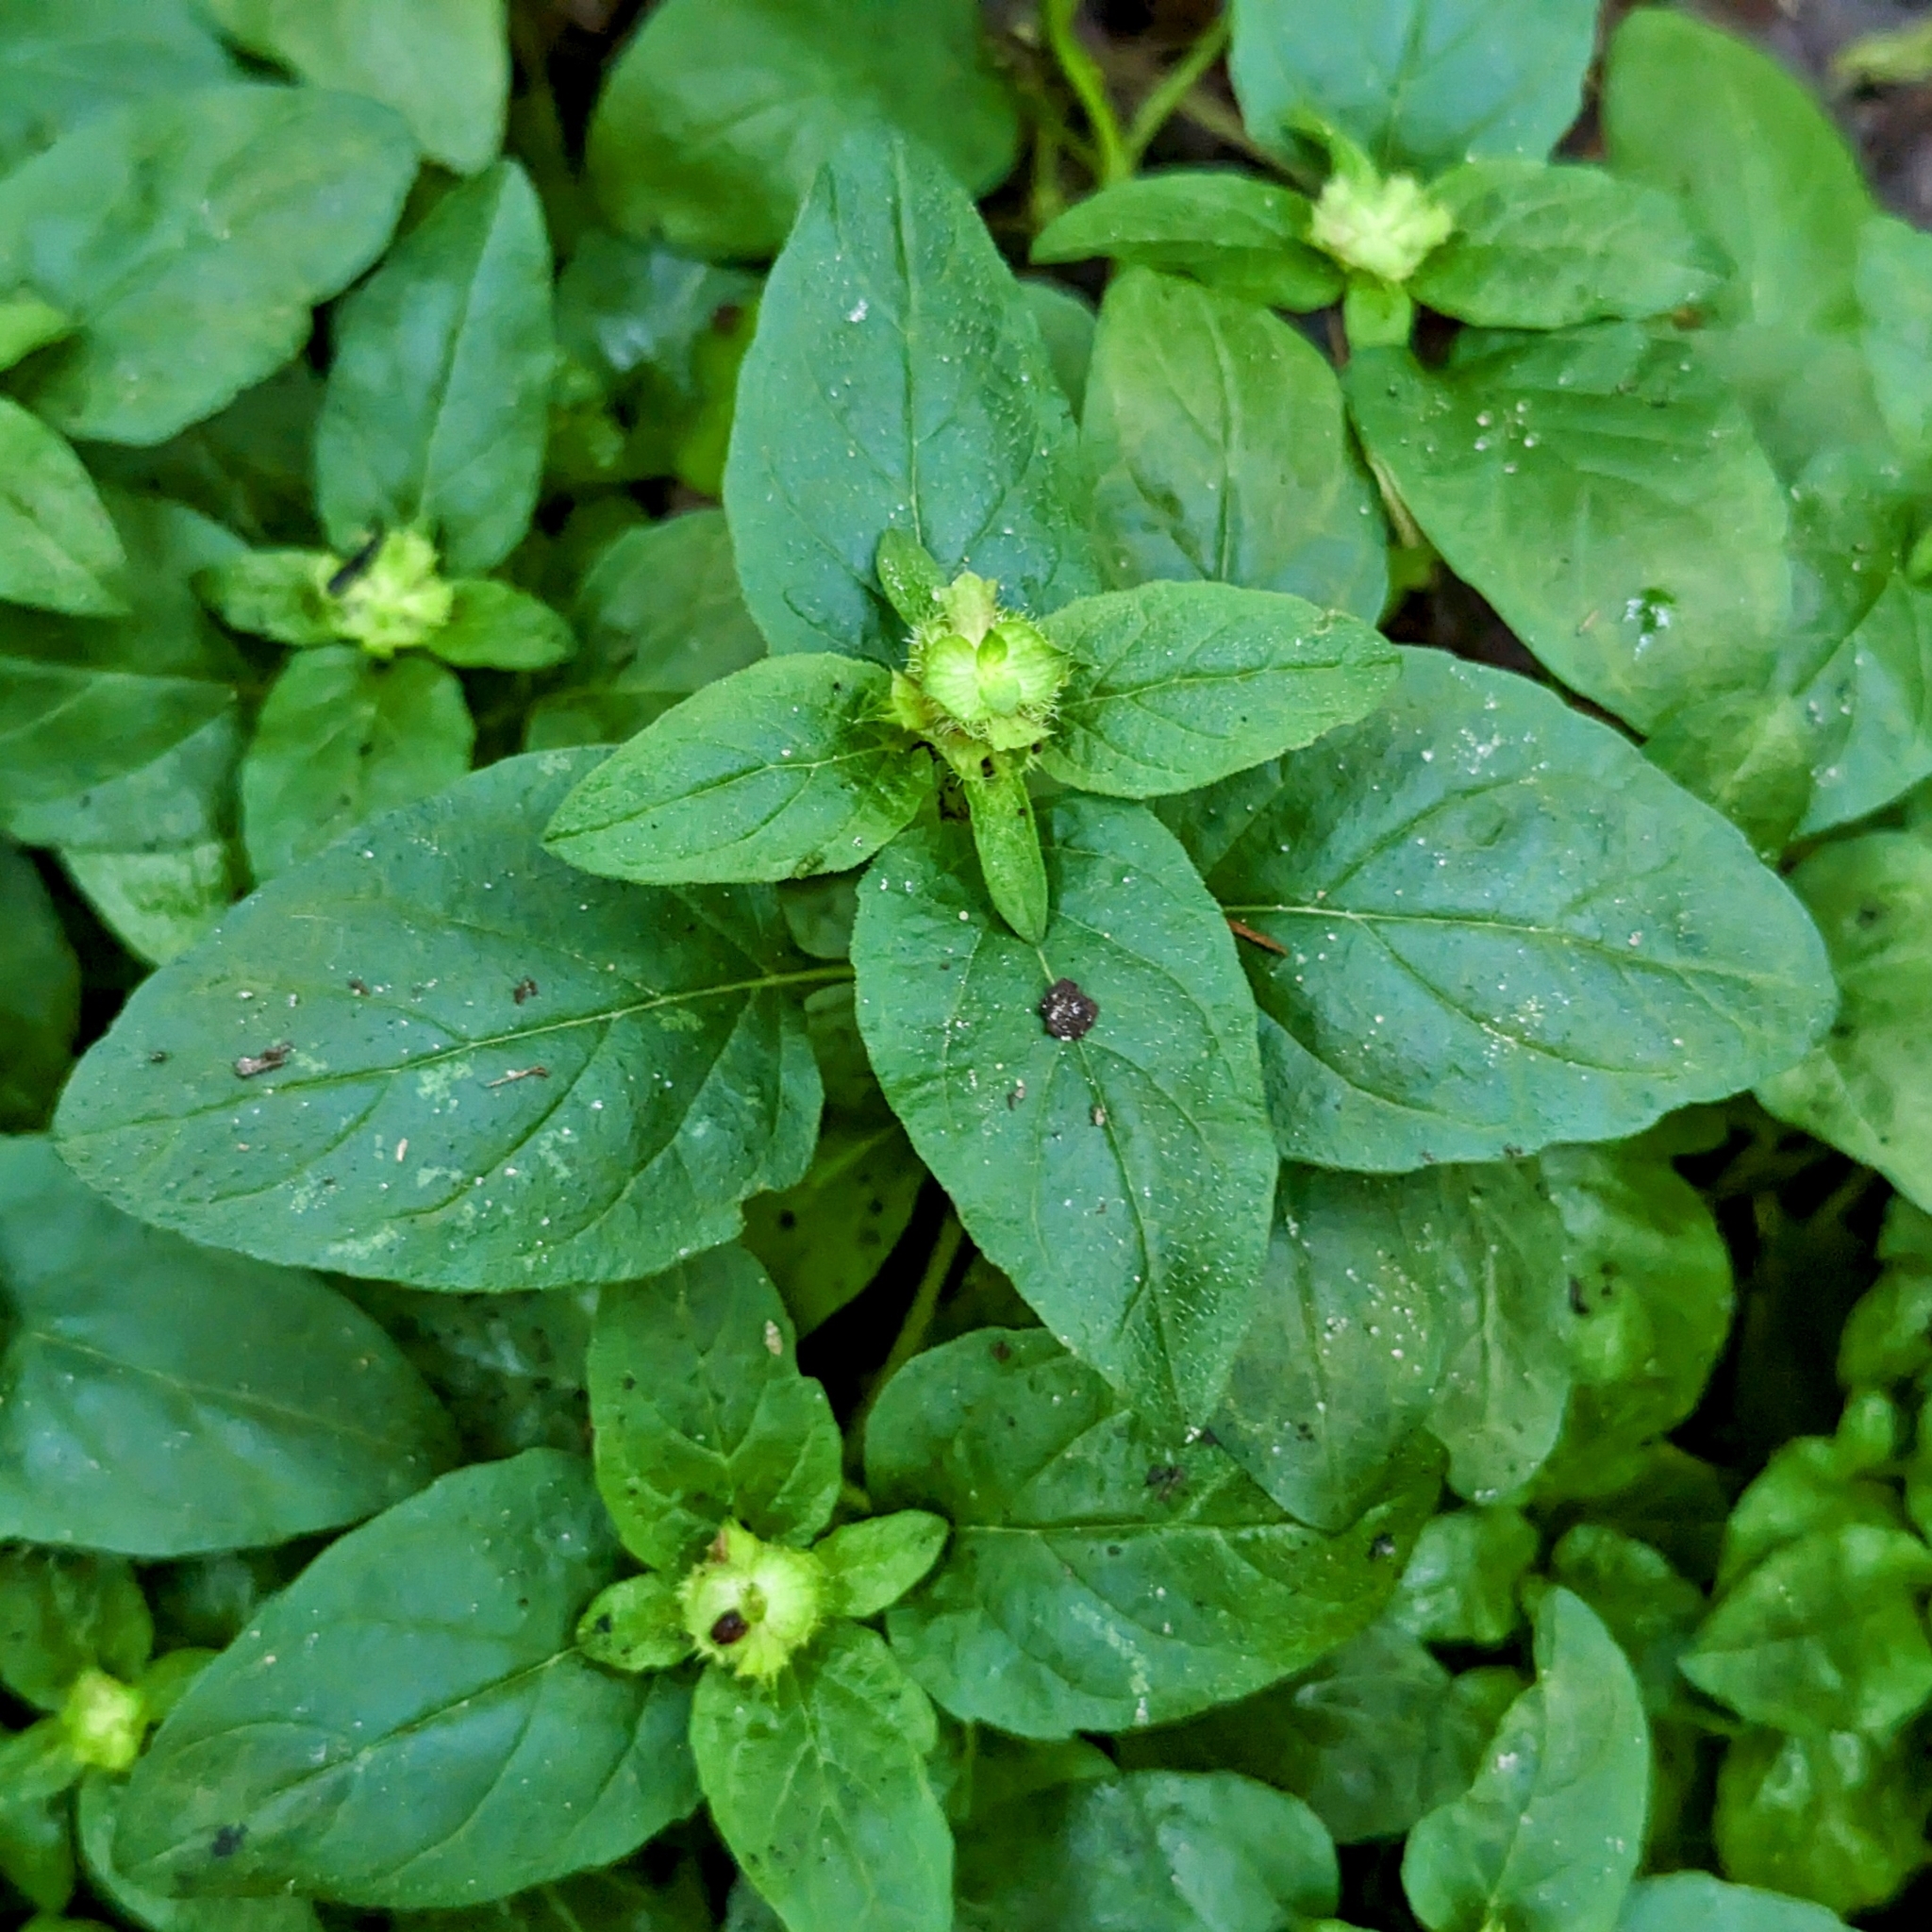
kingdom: Plantae
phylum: Tracheophyta
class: Magnoliopsida
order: Lamiales
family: Lamiaceae
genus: Prunella
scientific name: Prunella vulgaris
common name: Heal-all
